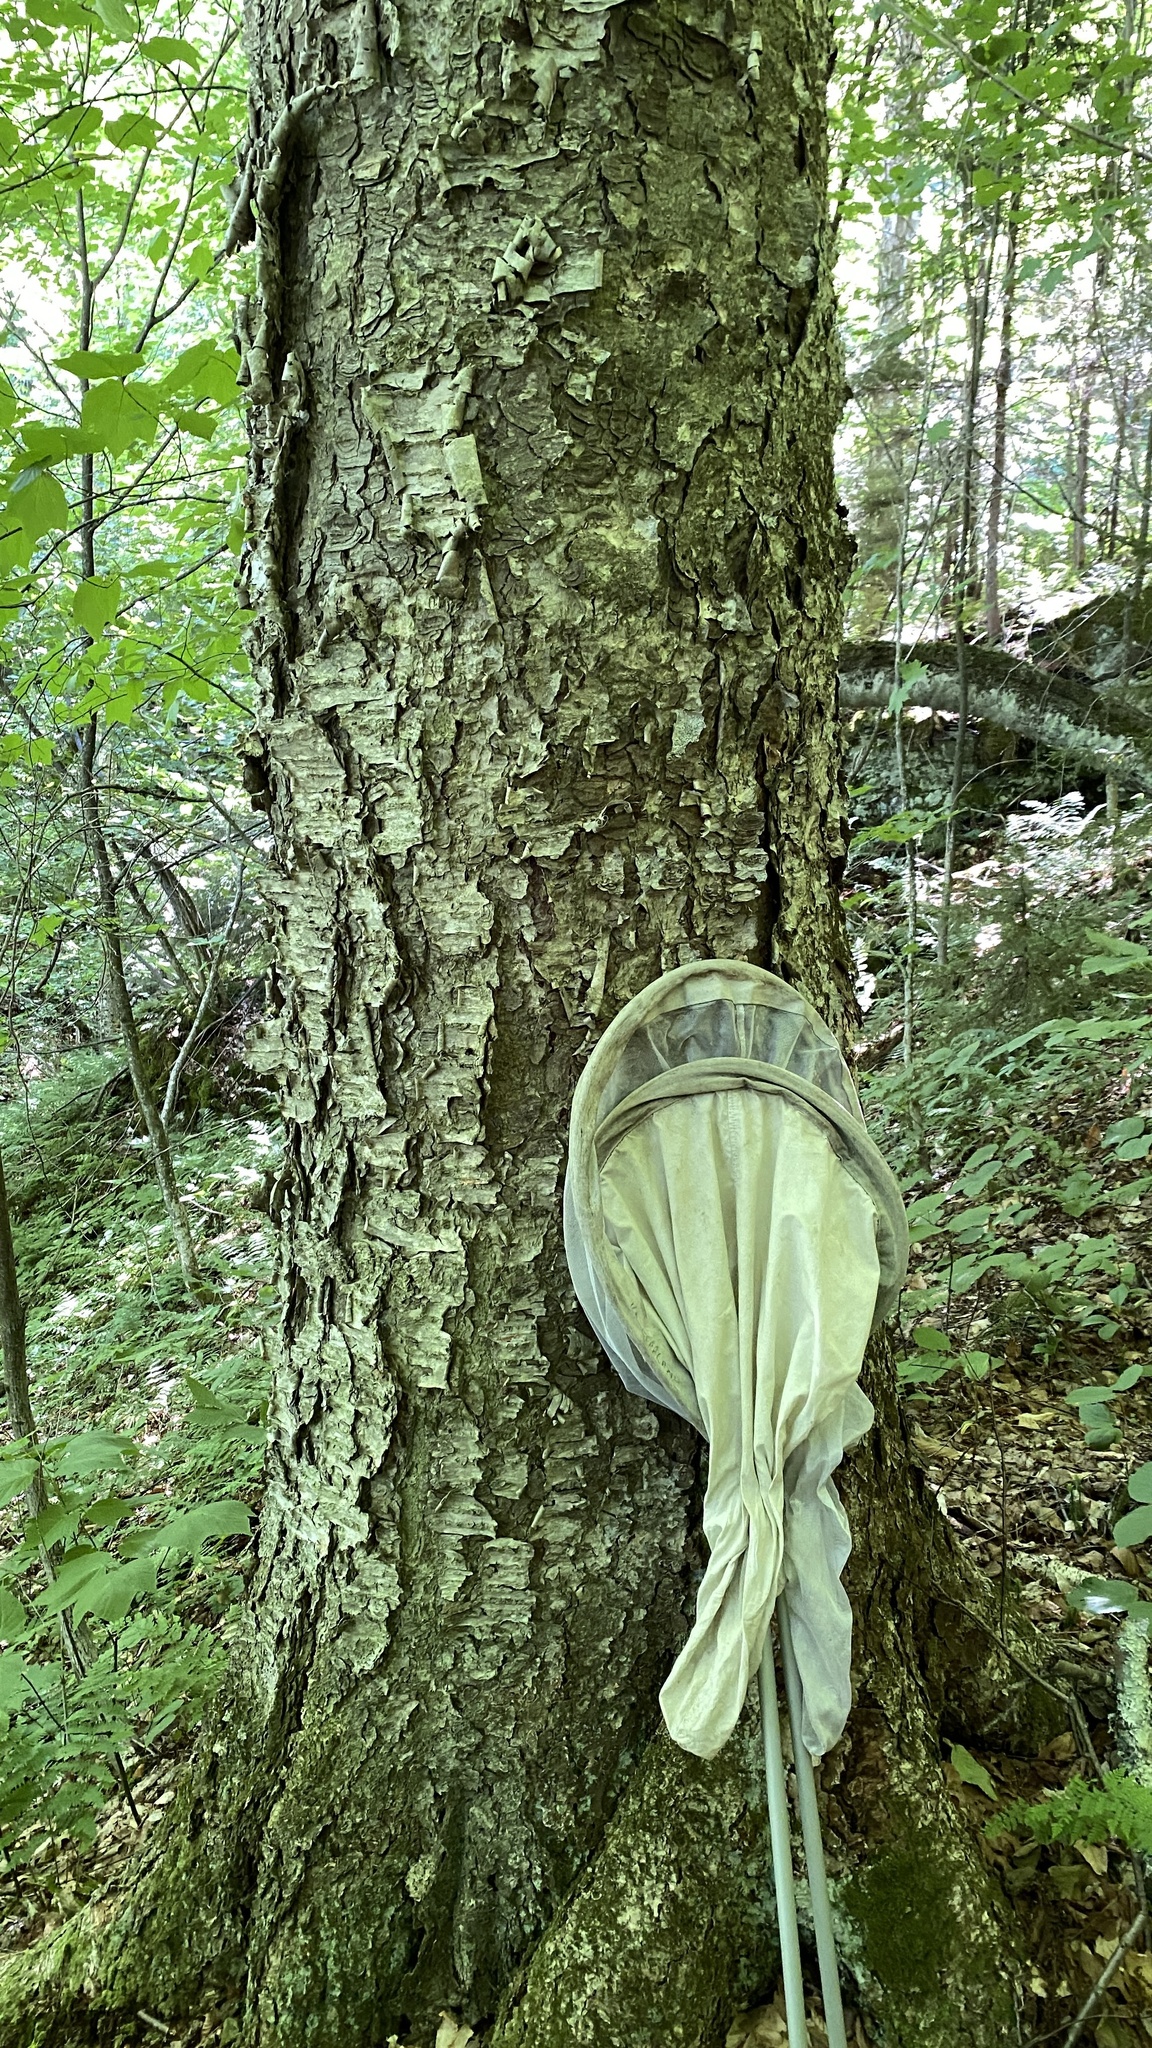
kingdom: Plantae
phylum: Tracheophyta
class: Magnoliopsida
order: Fagales
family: Betulaceae
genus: Betula
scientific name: Betula alleghaniensis
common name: Yellow birch
